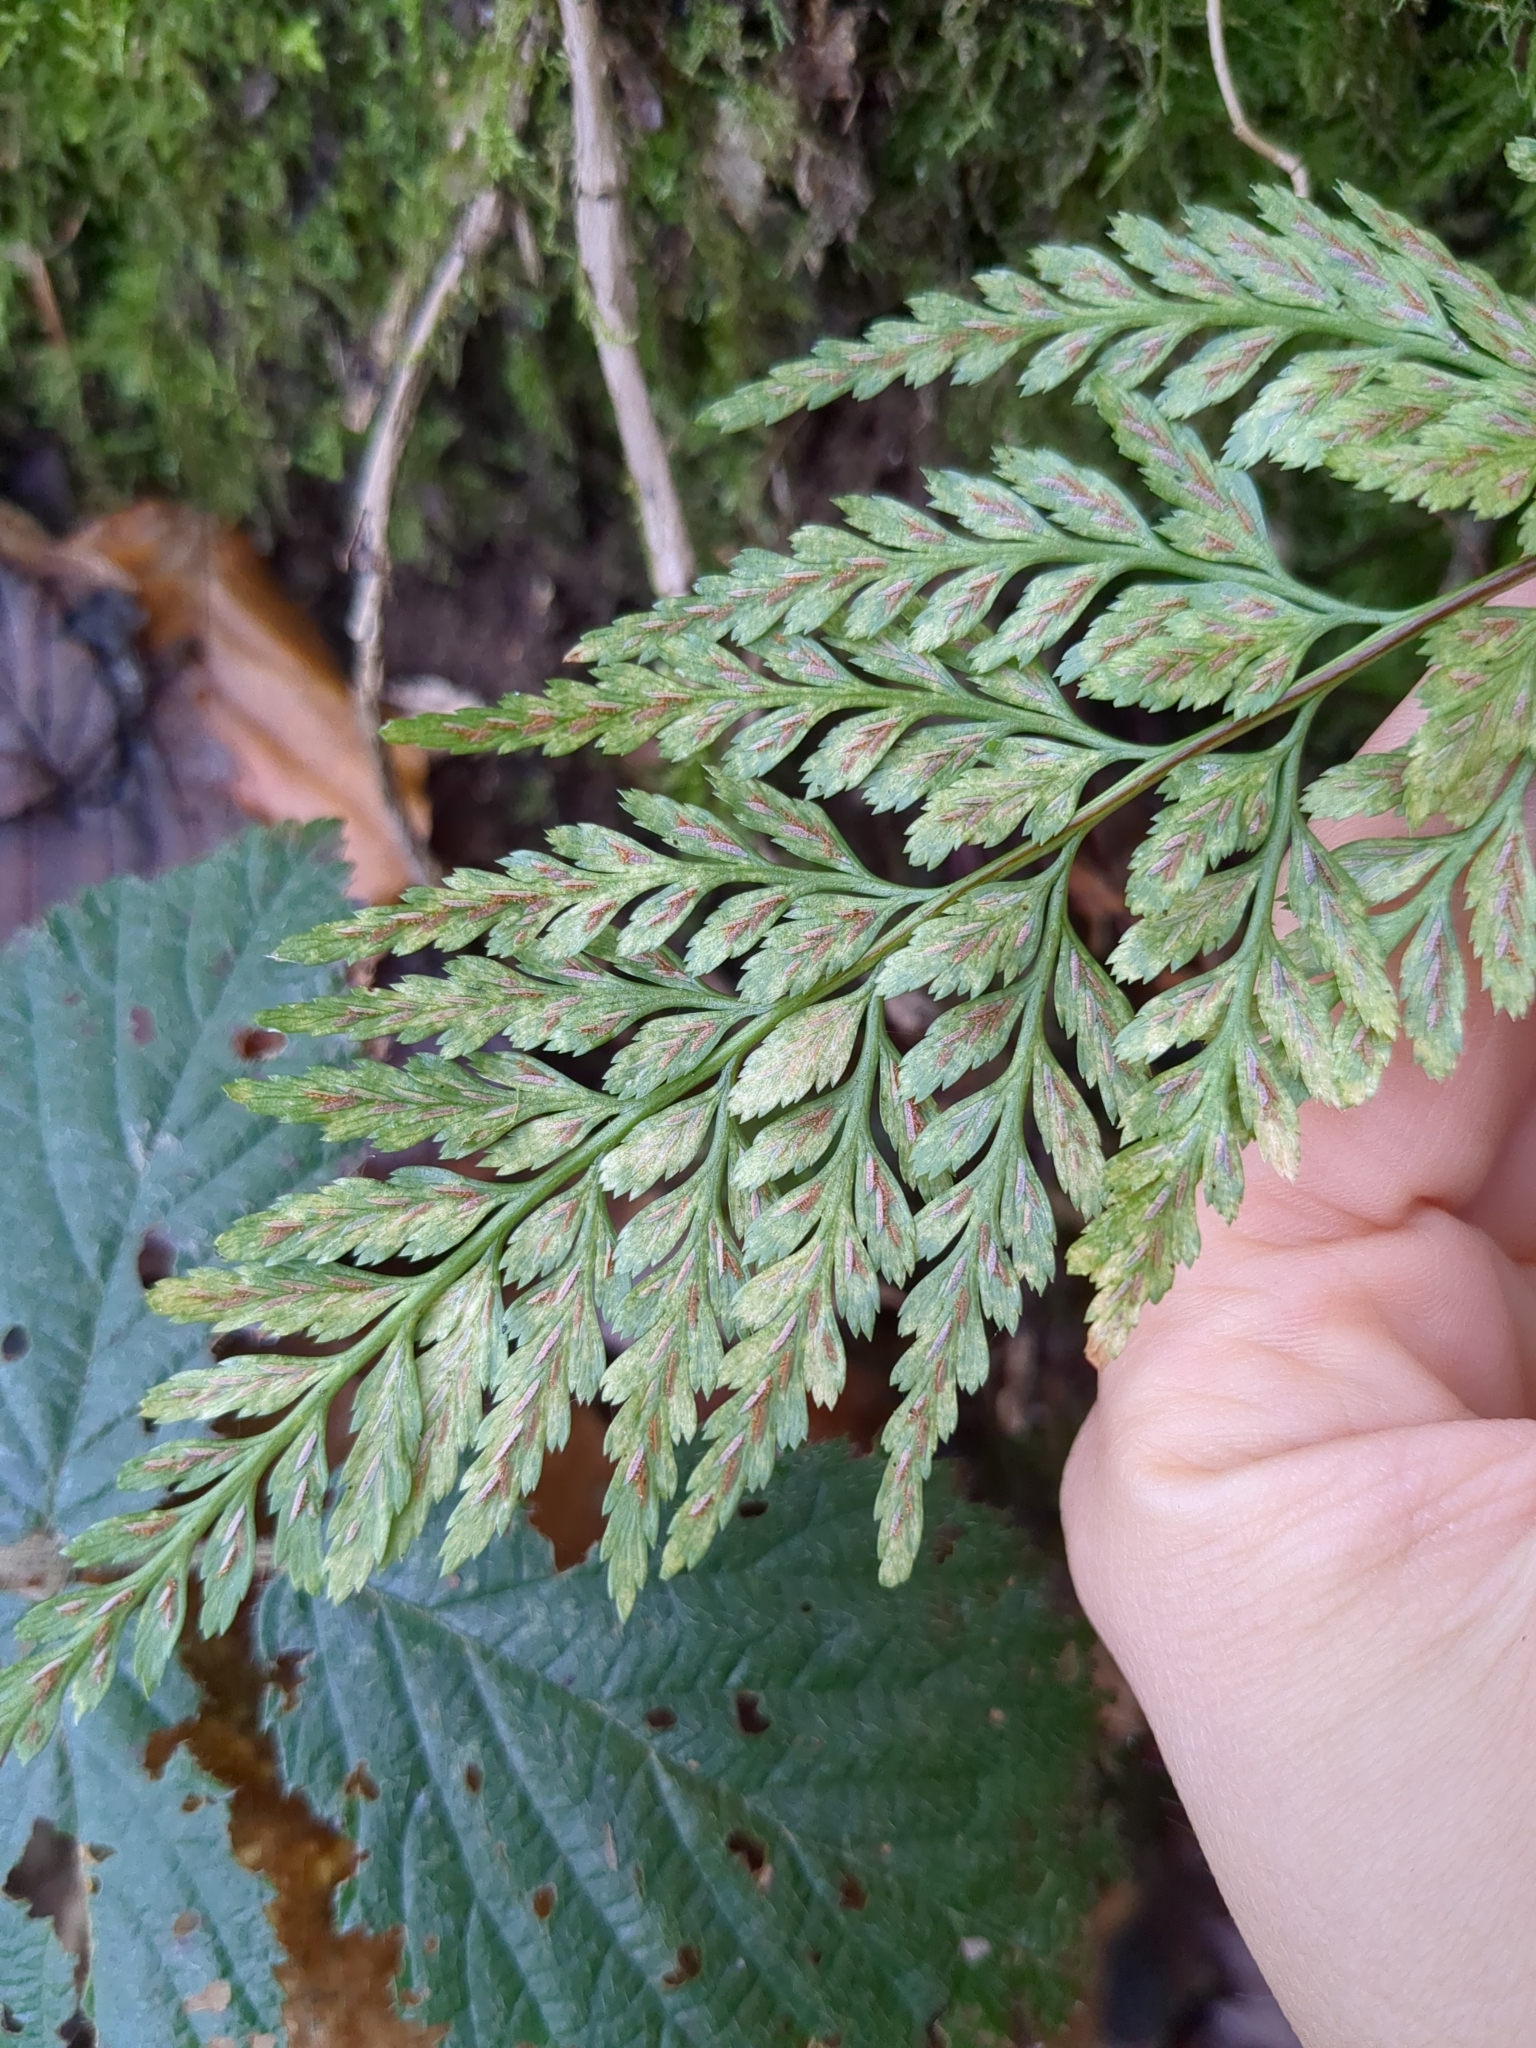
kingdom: Plantae
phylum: Tracheophyta
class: Polypodiopsida
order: Polypodiales
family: Aspleniaceae
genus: Asplenium
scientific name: Asplenium adiantum-nigrum
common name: Black spleenwort
